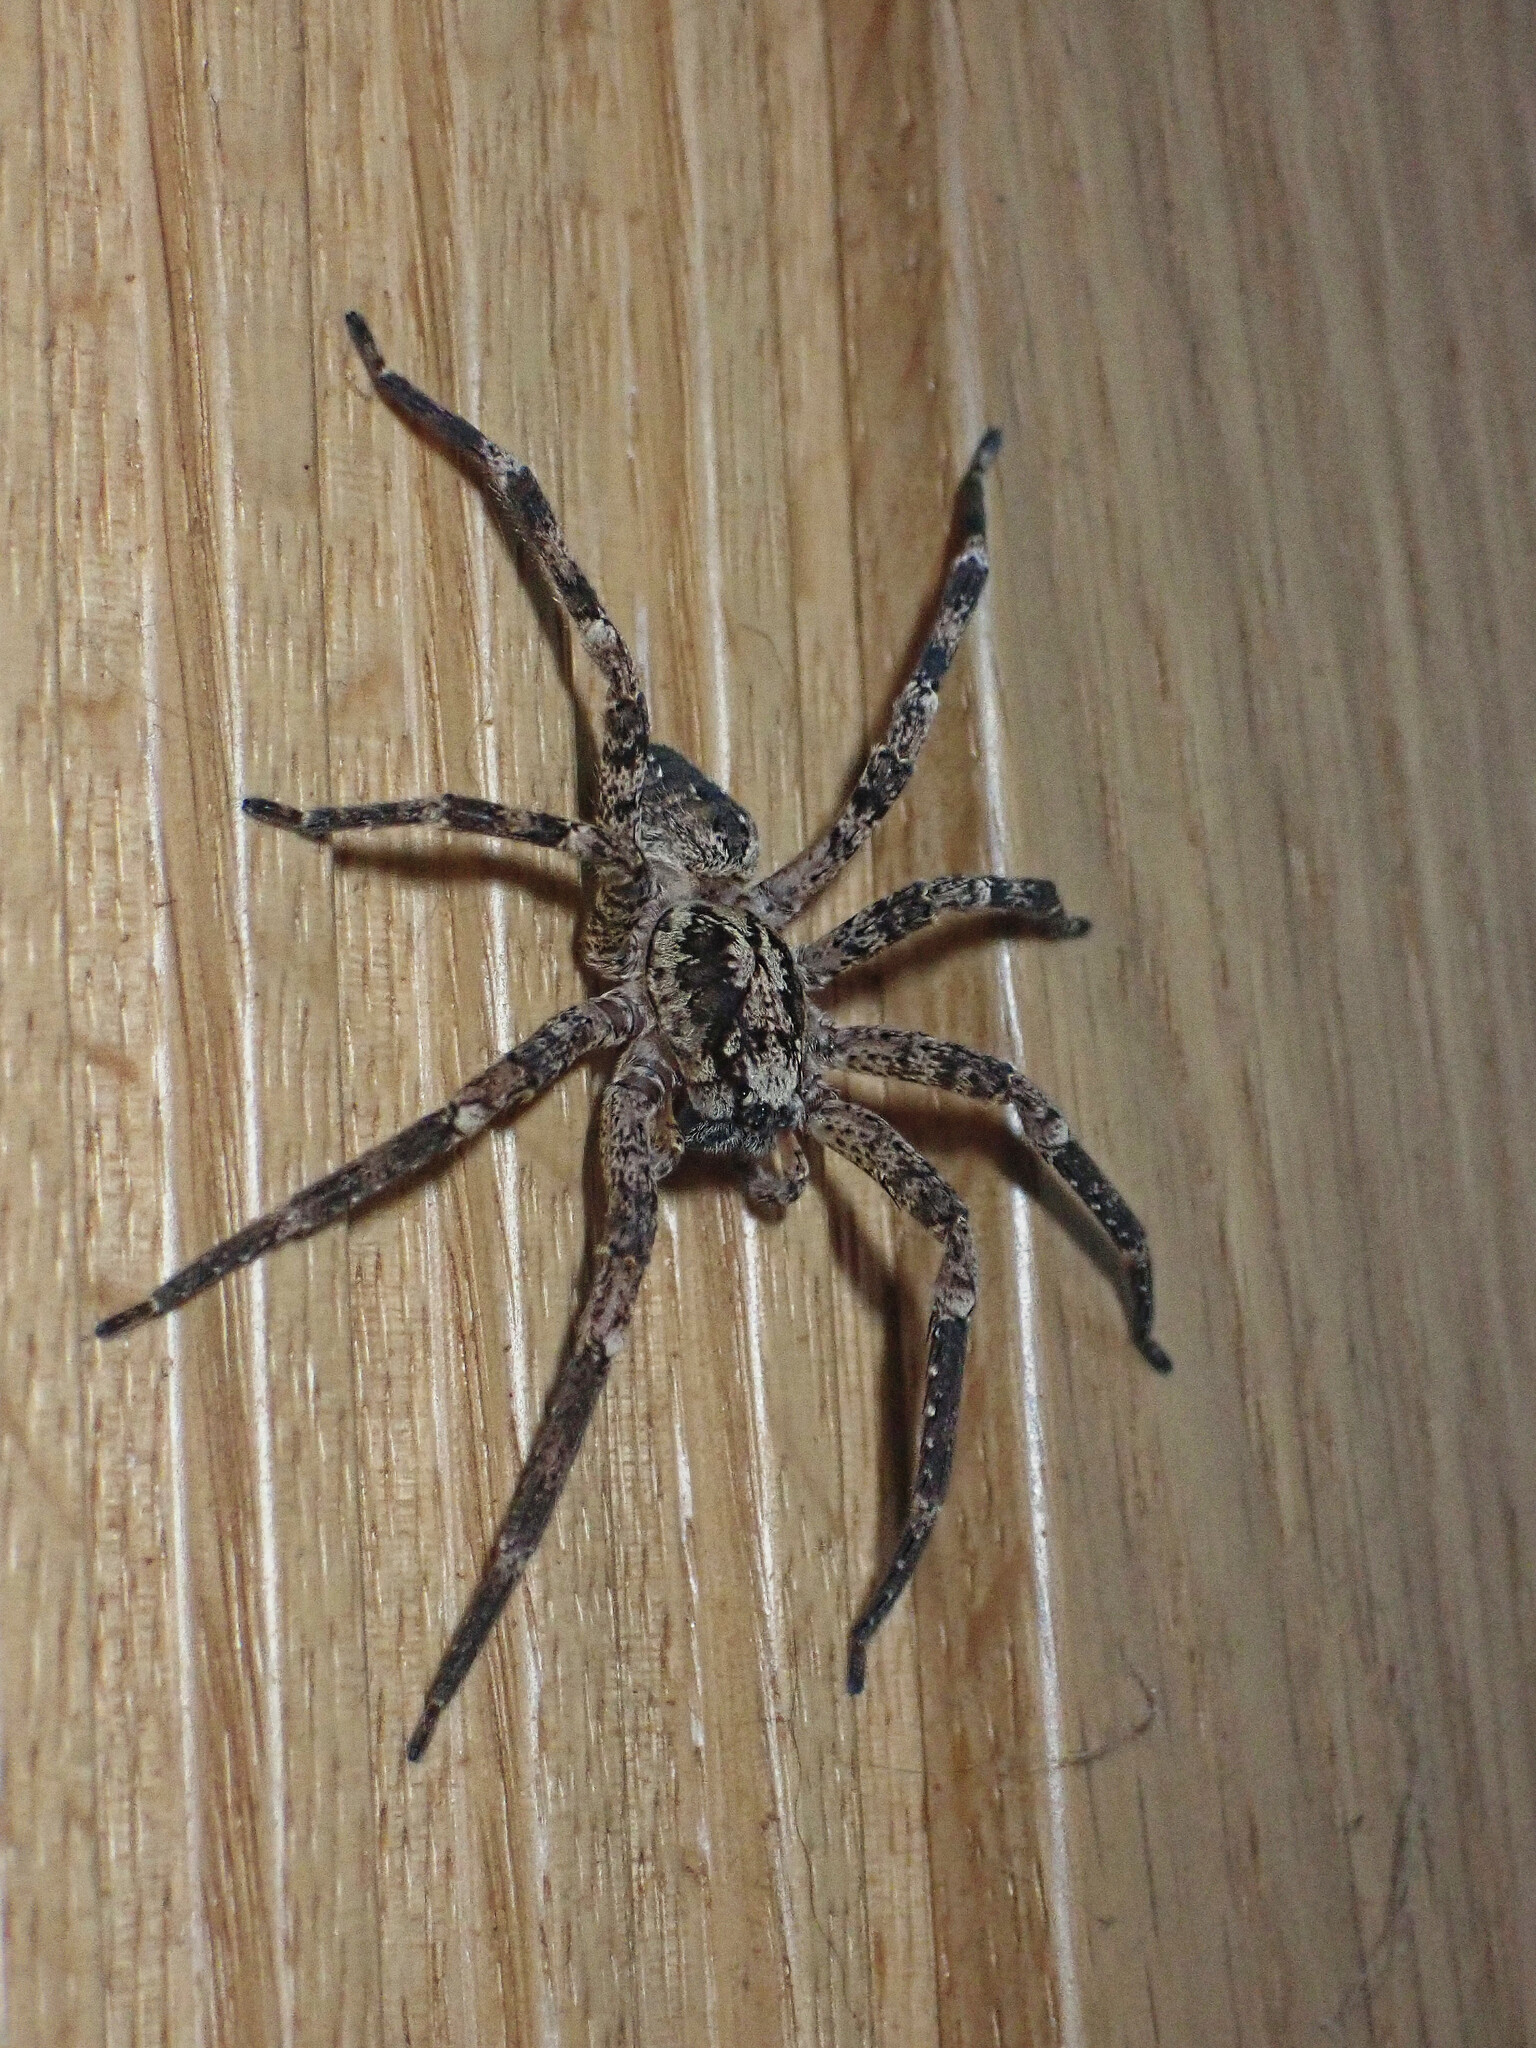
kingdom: Animalia
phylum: Arthropoda
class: Arachnida
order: Araneae
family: Zoropsidae
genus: Zoropsis
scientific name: Zoropsis spinimana
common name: Zoropsid spider
